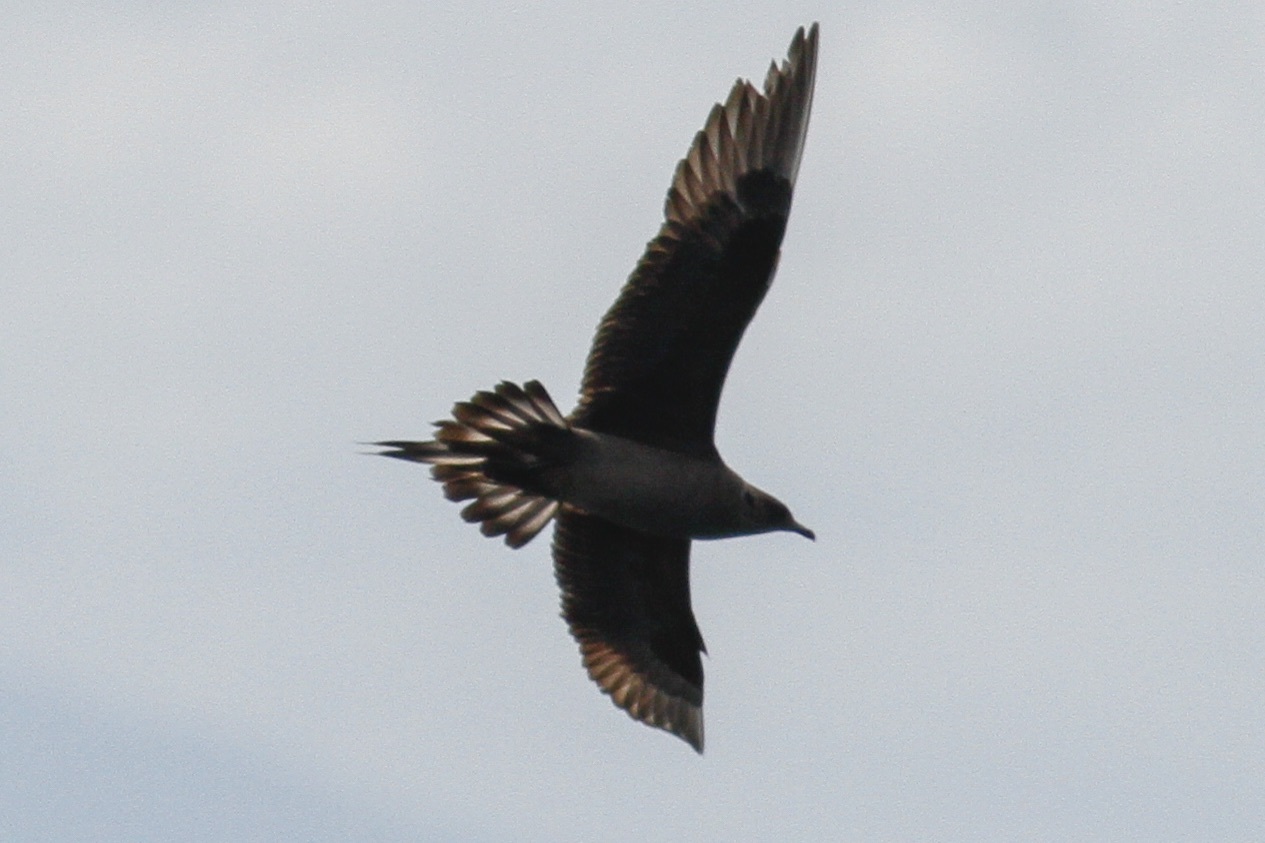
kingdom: Animalia
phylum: Chordata
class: Aves
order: Charadriiformes
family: Stercorariidae
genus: Stercorarius
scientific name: Stercorarius parasiticus
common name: Parasitic jaeger
